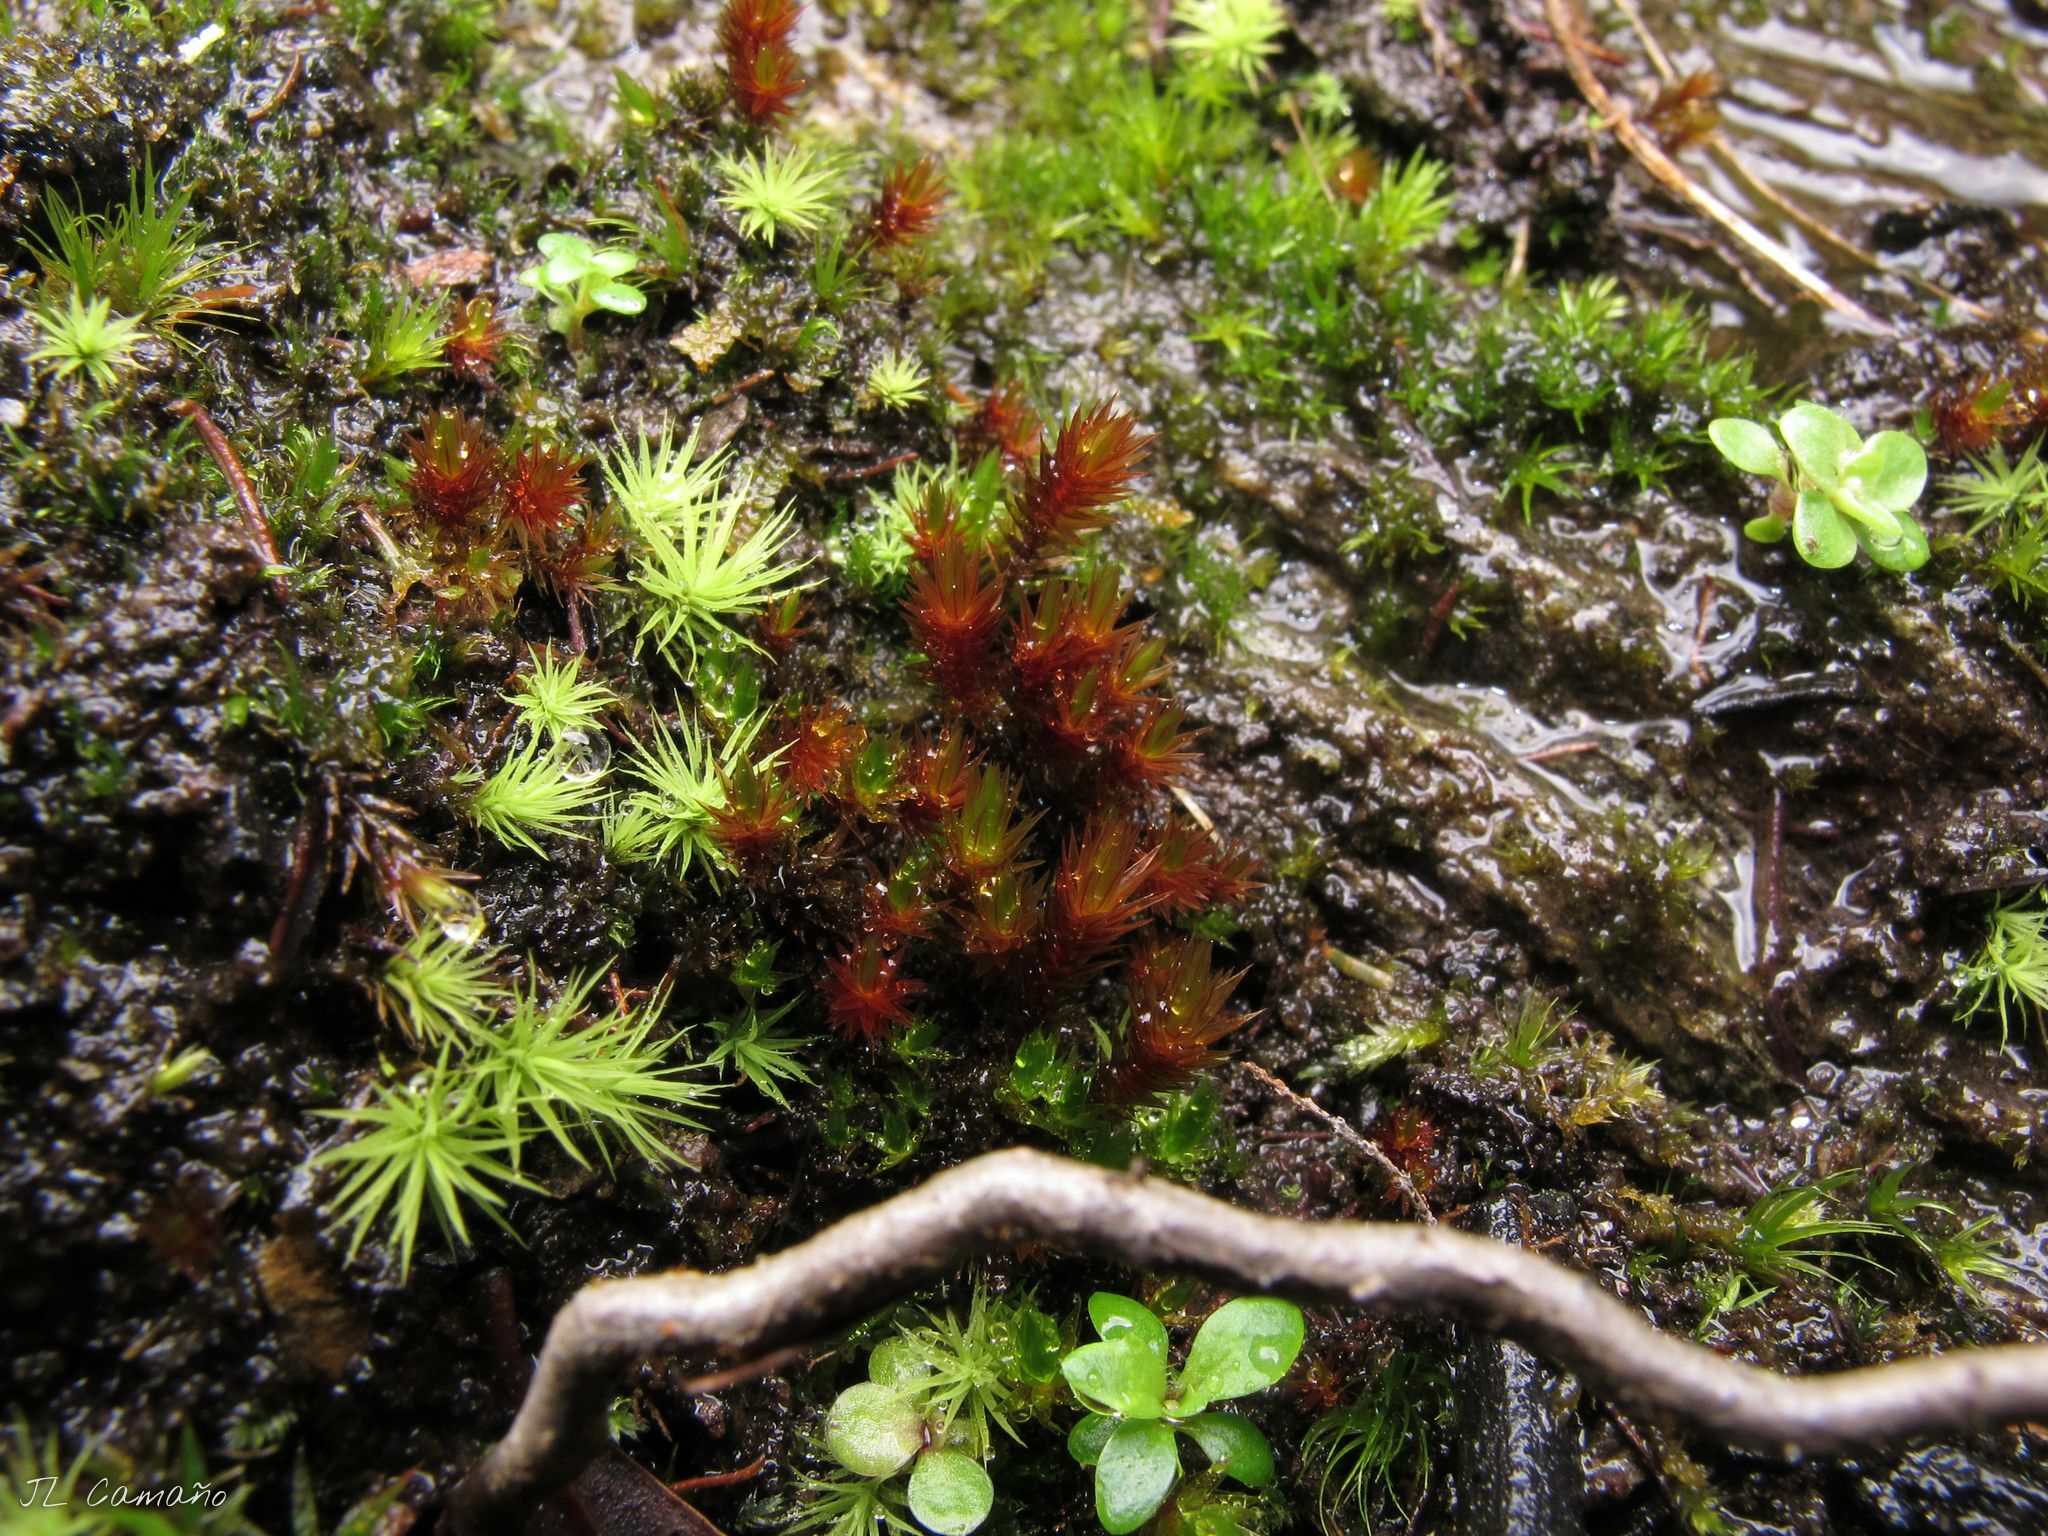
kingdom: Plantae
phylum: Bryophyta
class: Bryopsida
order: Bryales
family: Bryaceae
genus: Imbribryum
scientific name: Imbribryum alpinum
